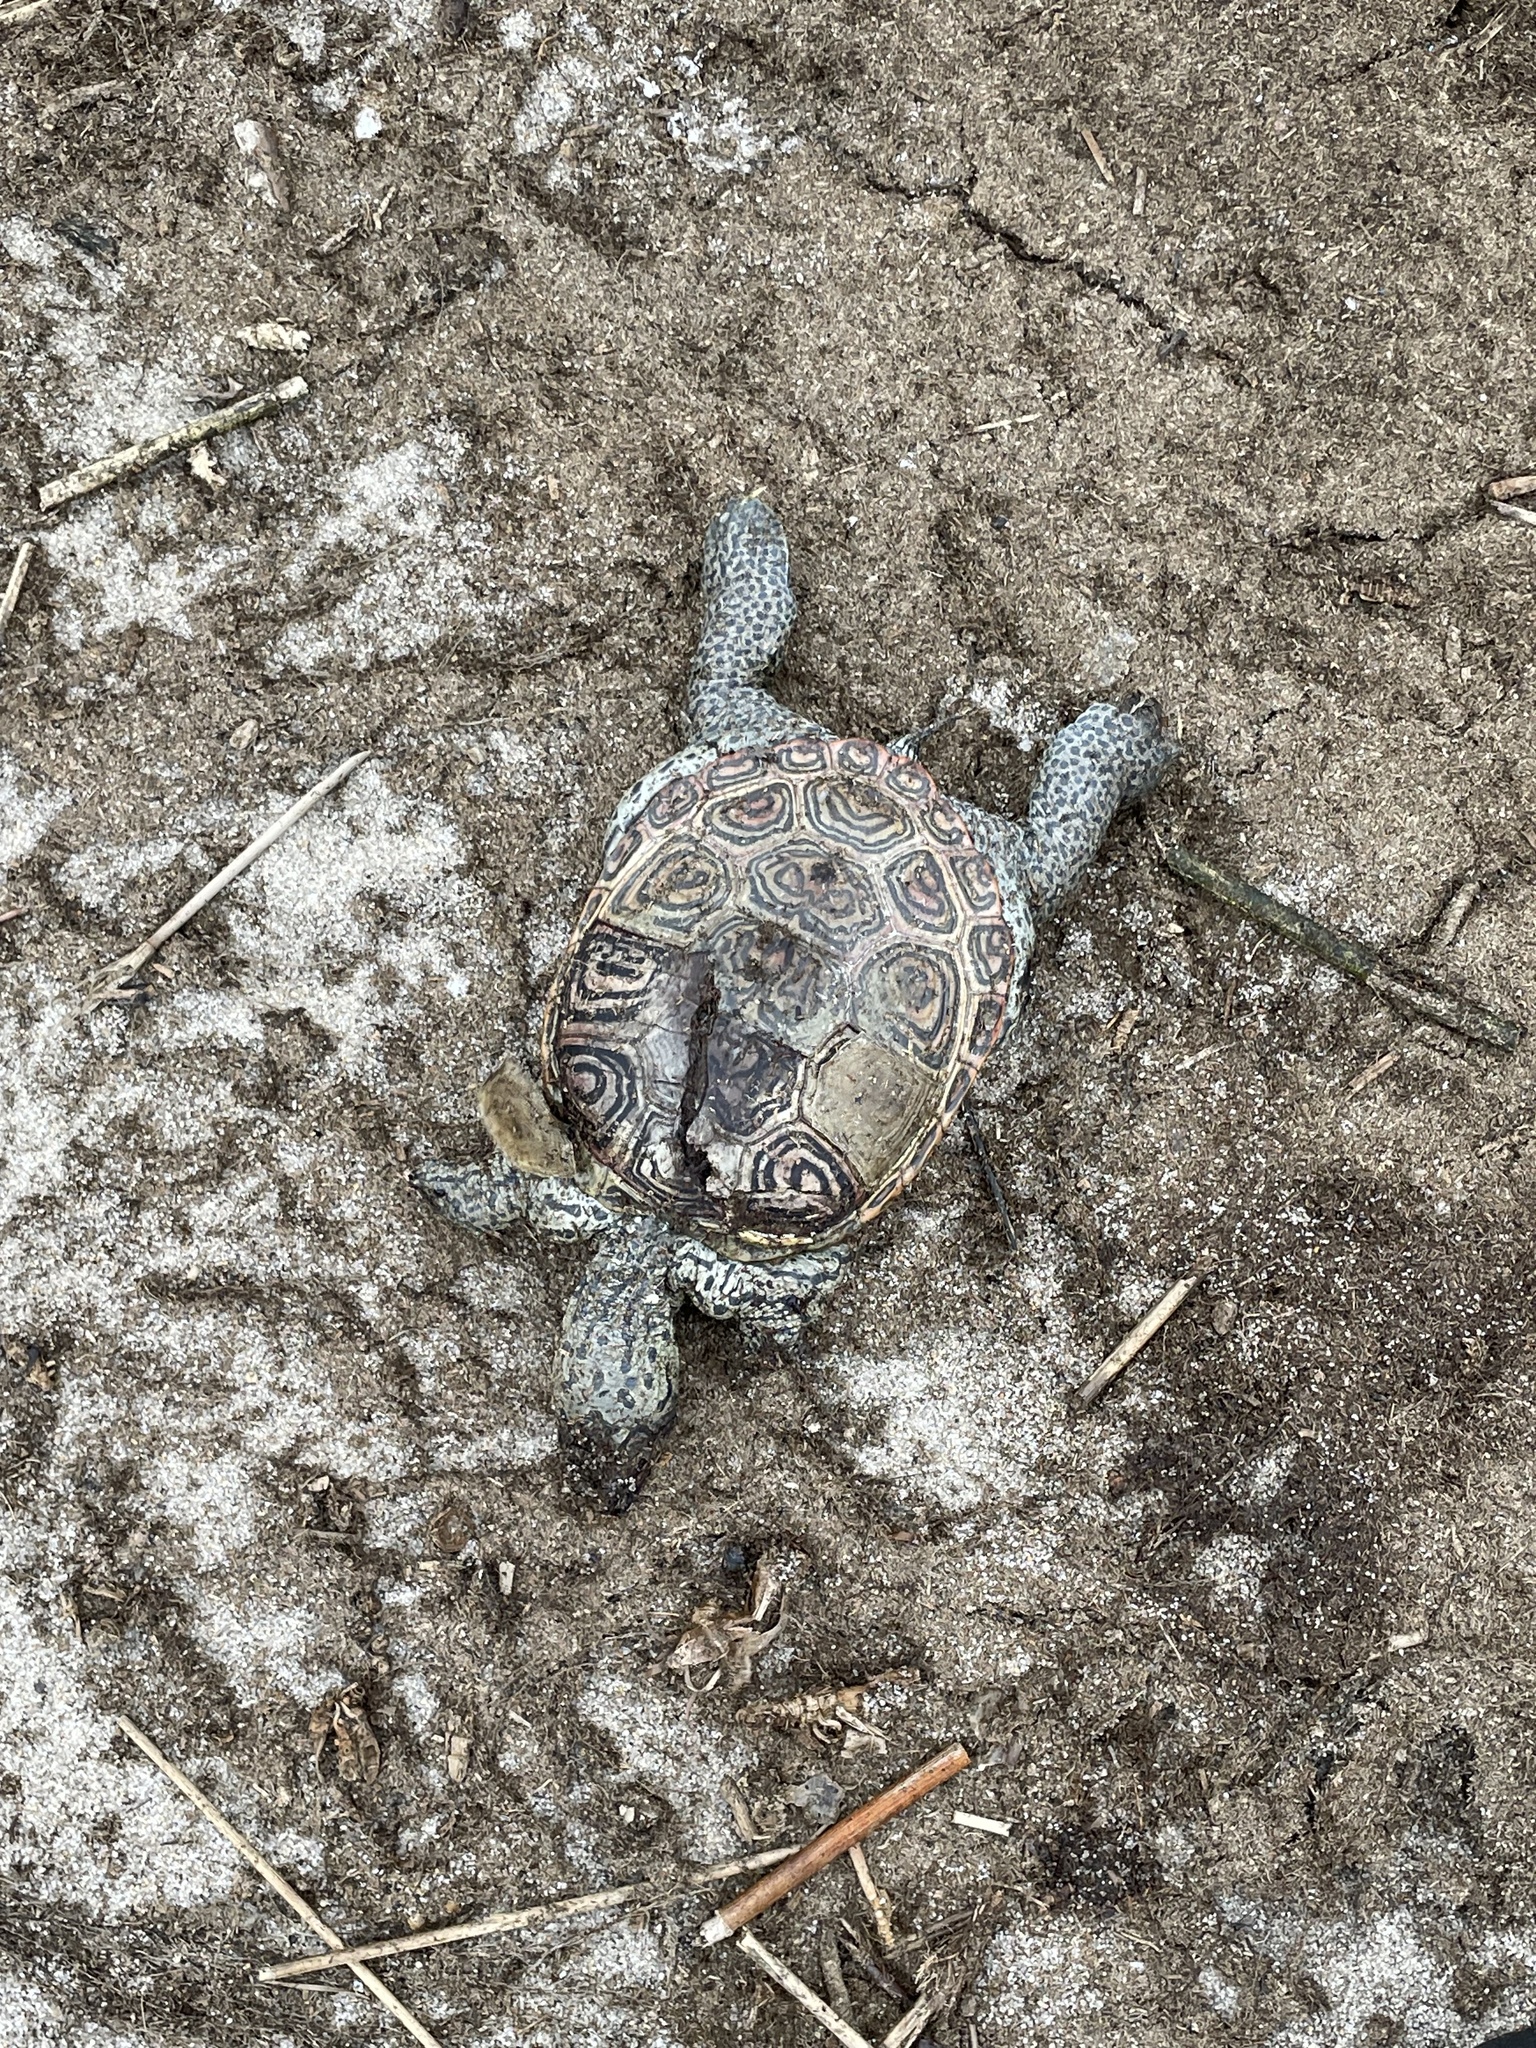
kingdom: Animalia
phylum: Chordata
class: Testudines
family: Emydidae
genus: Malaclemys
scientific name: Malaclemys terrapin
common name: Diamondback terrapin
